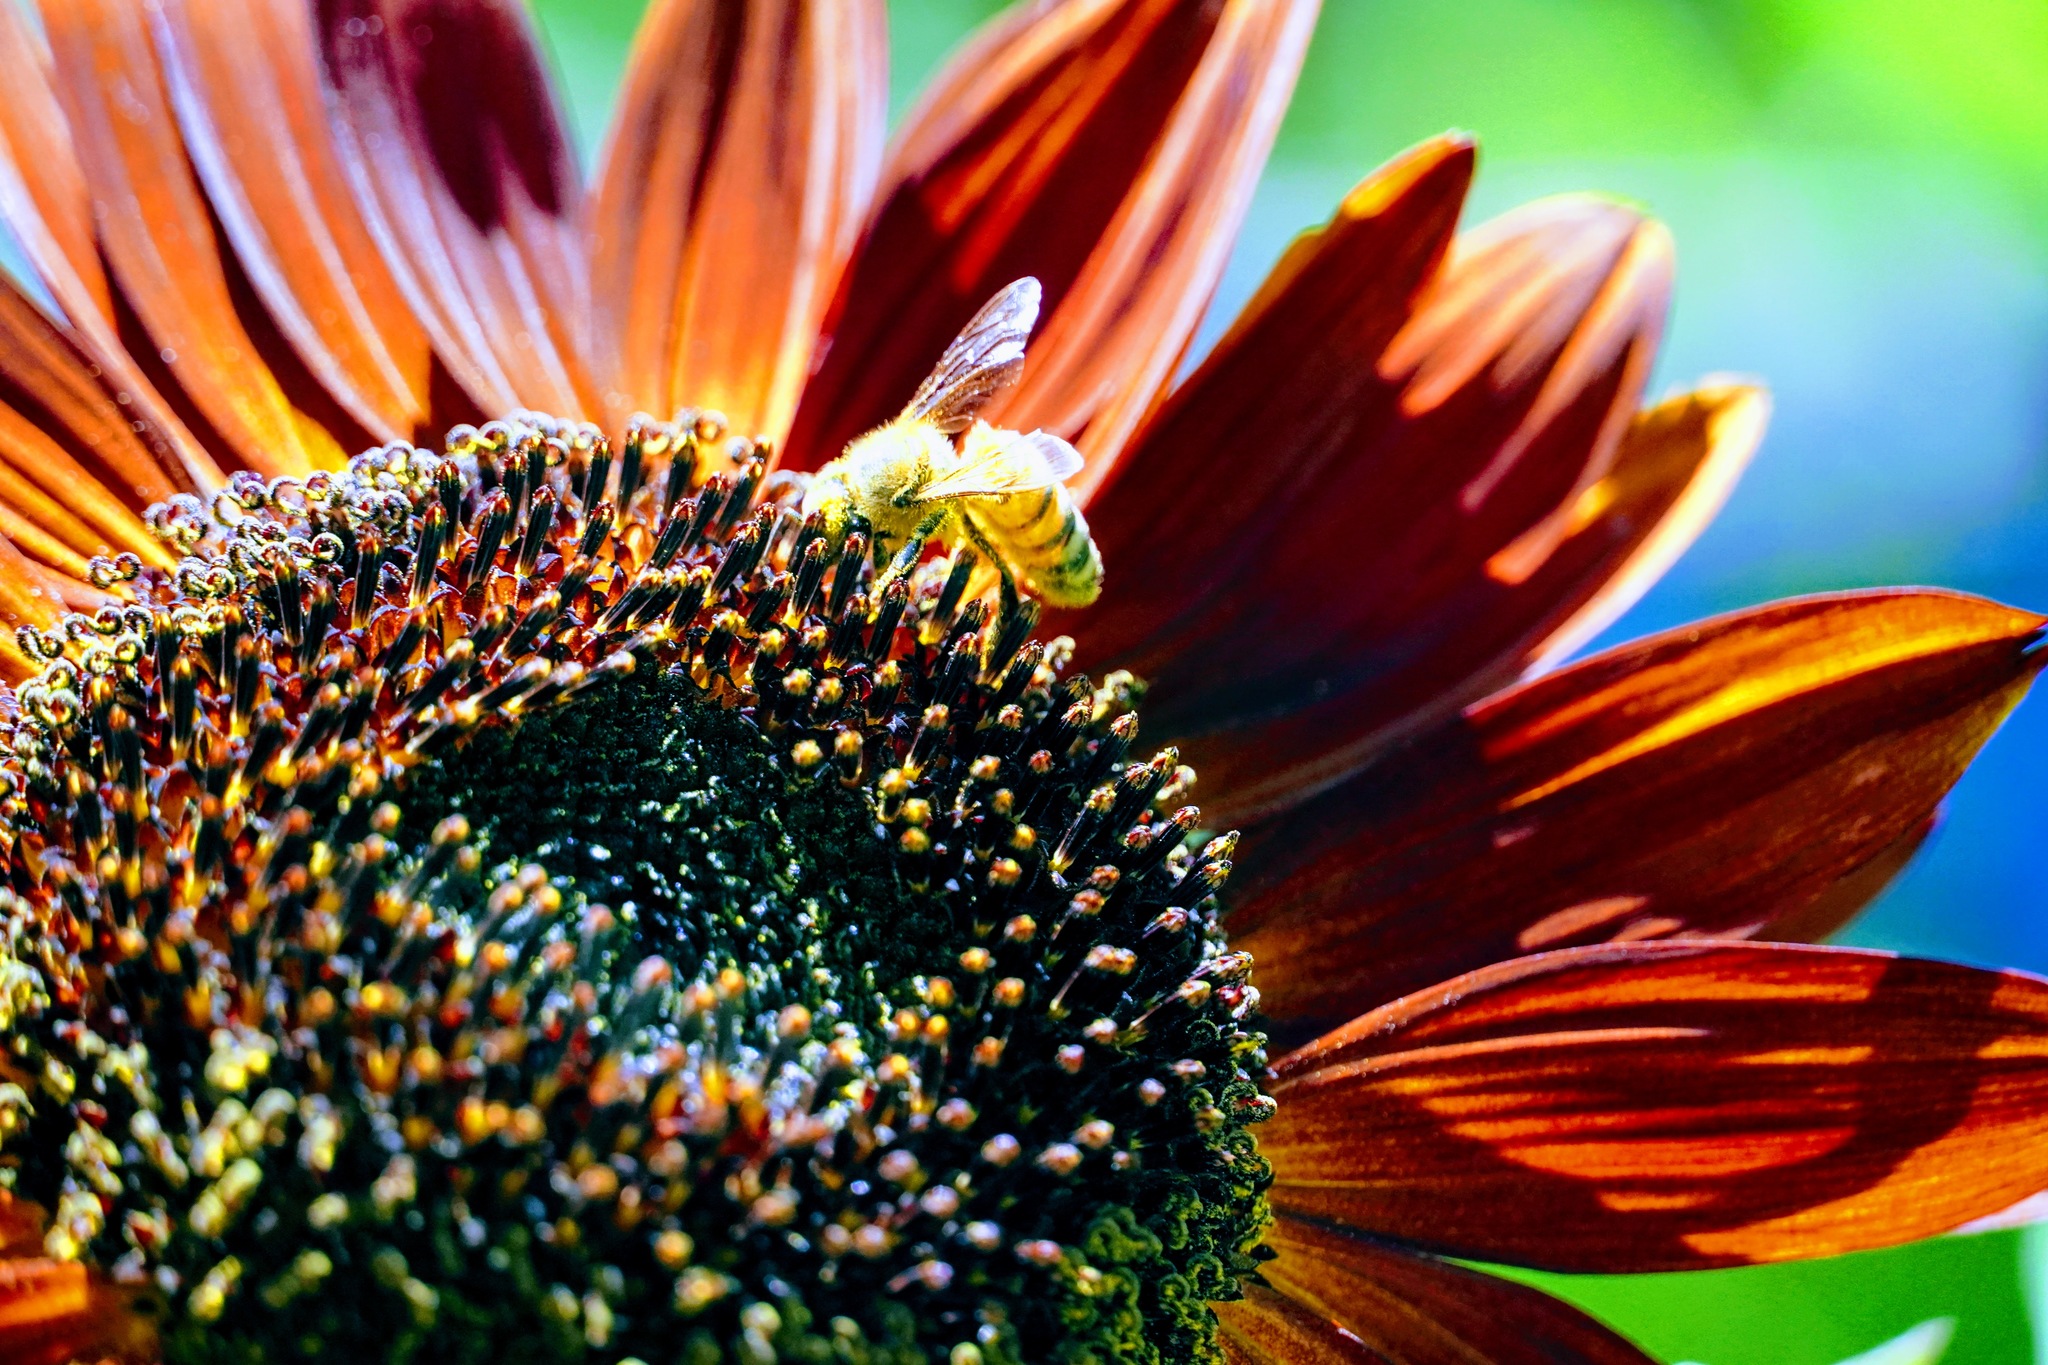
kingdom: Animalia
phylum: Arthropoda
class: Insecta
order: Hymenoptera
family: Apidae
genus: Apis
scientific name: Apis mellifera
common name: Honey bee
